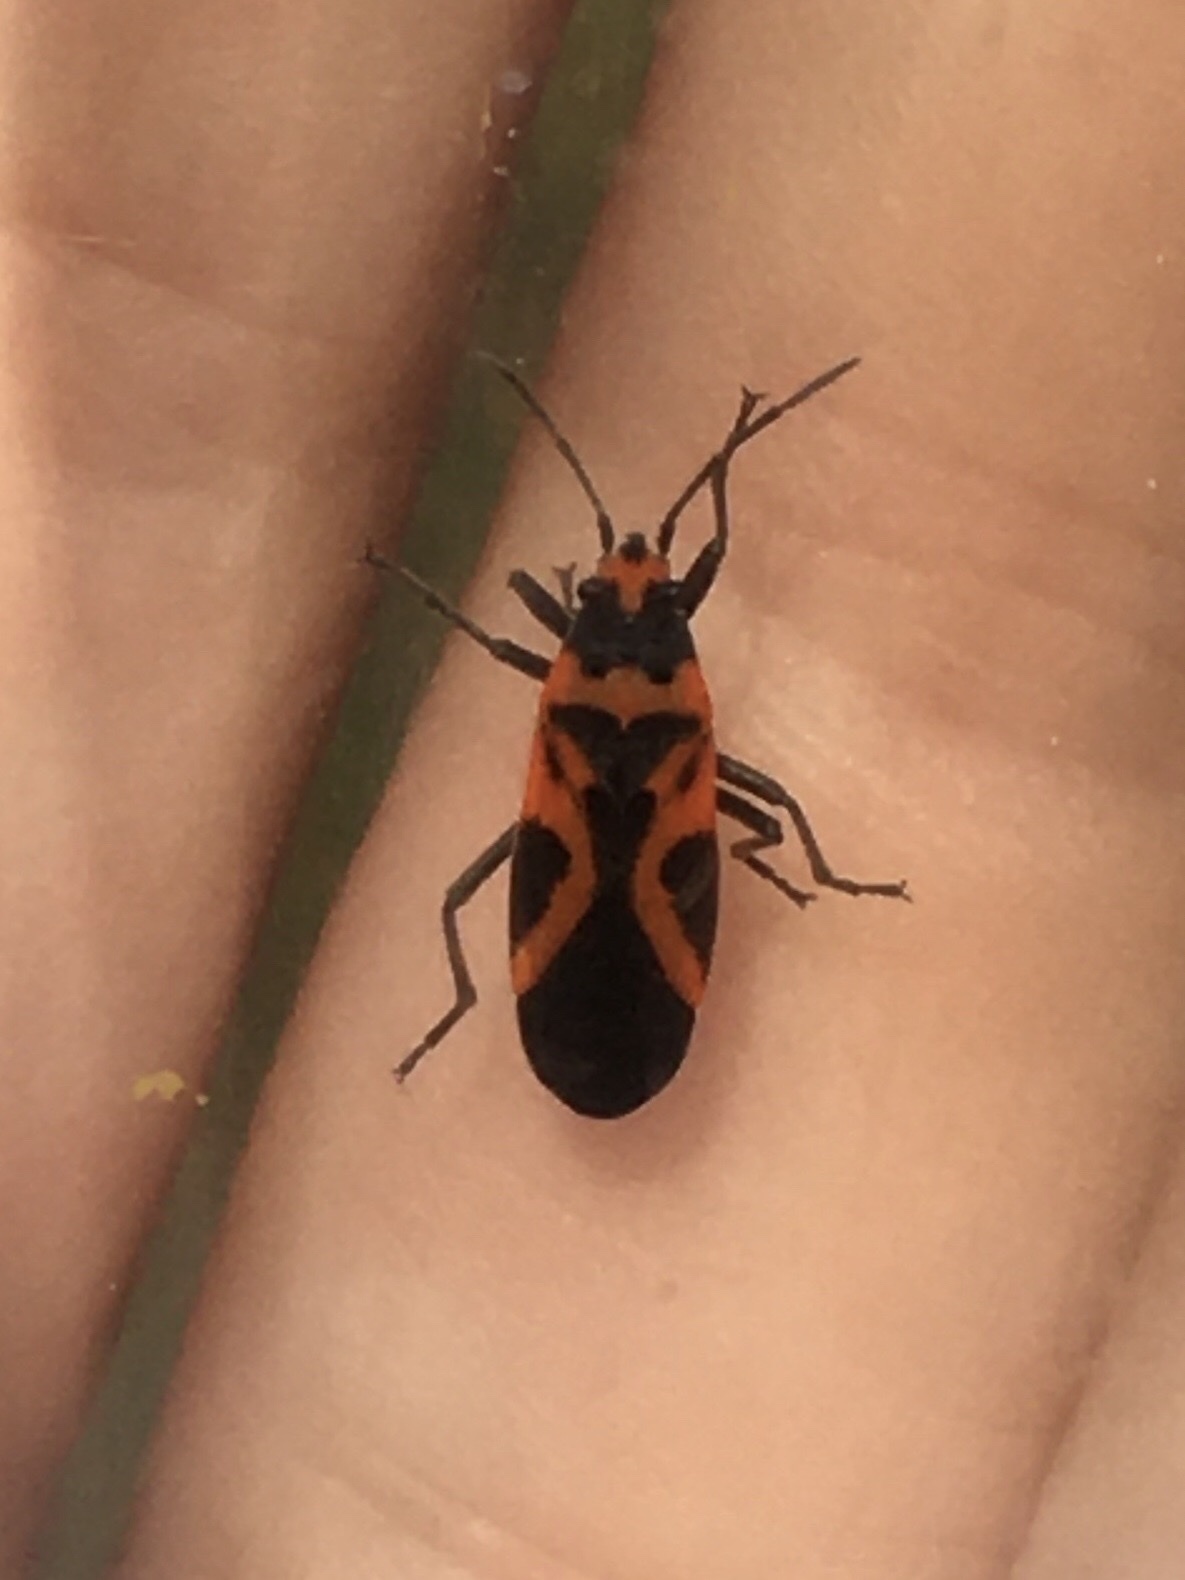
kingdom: Animalia
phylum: Arthropoda
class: Insecta
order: Hemiptera
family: Lygaeidae
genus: Lygaeus
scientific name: Lygaeus turcicus
